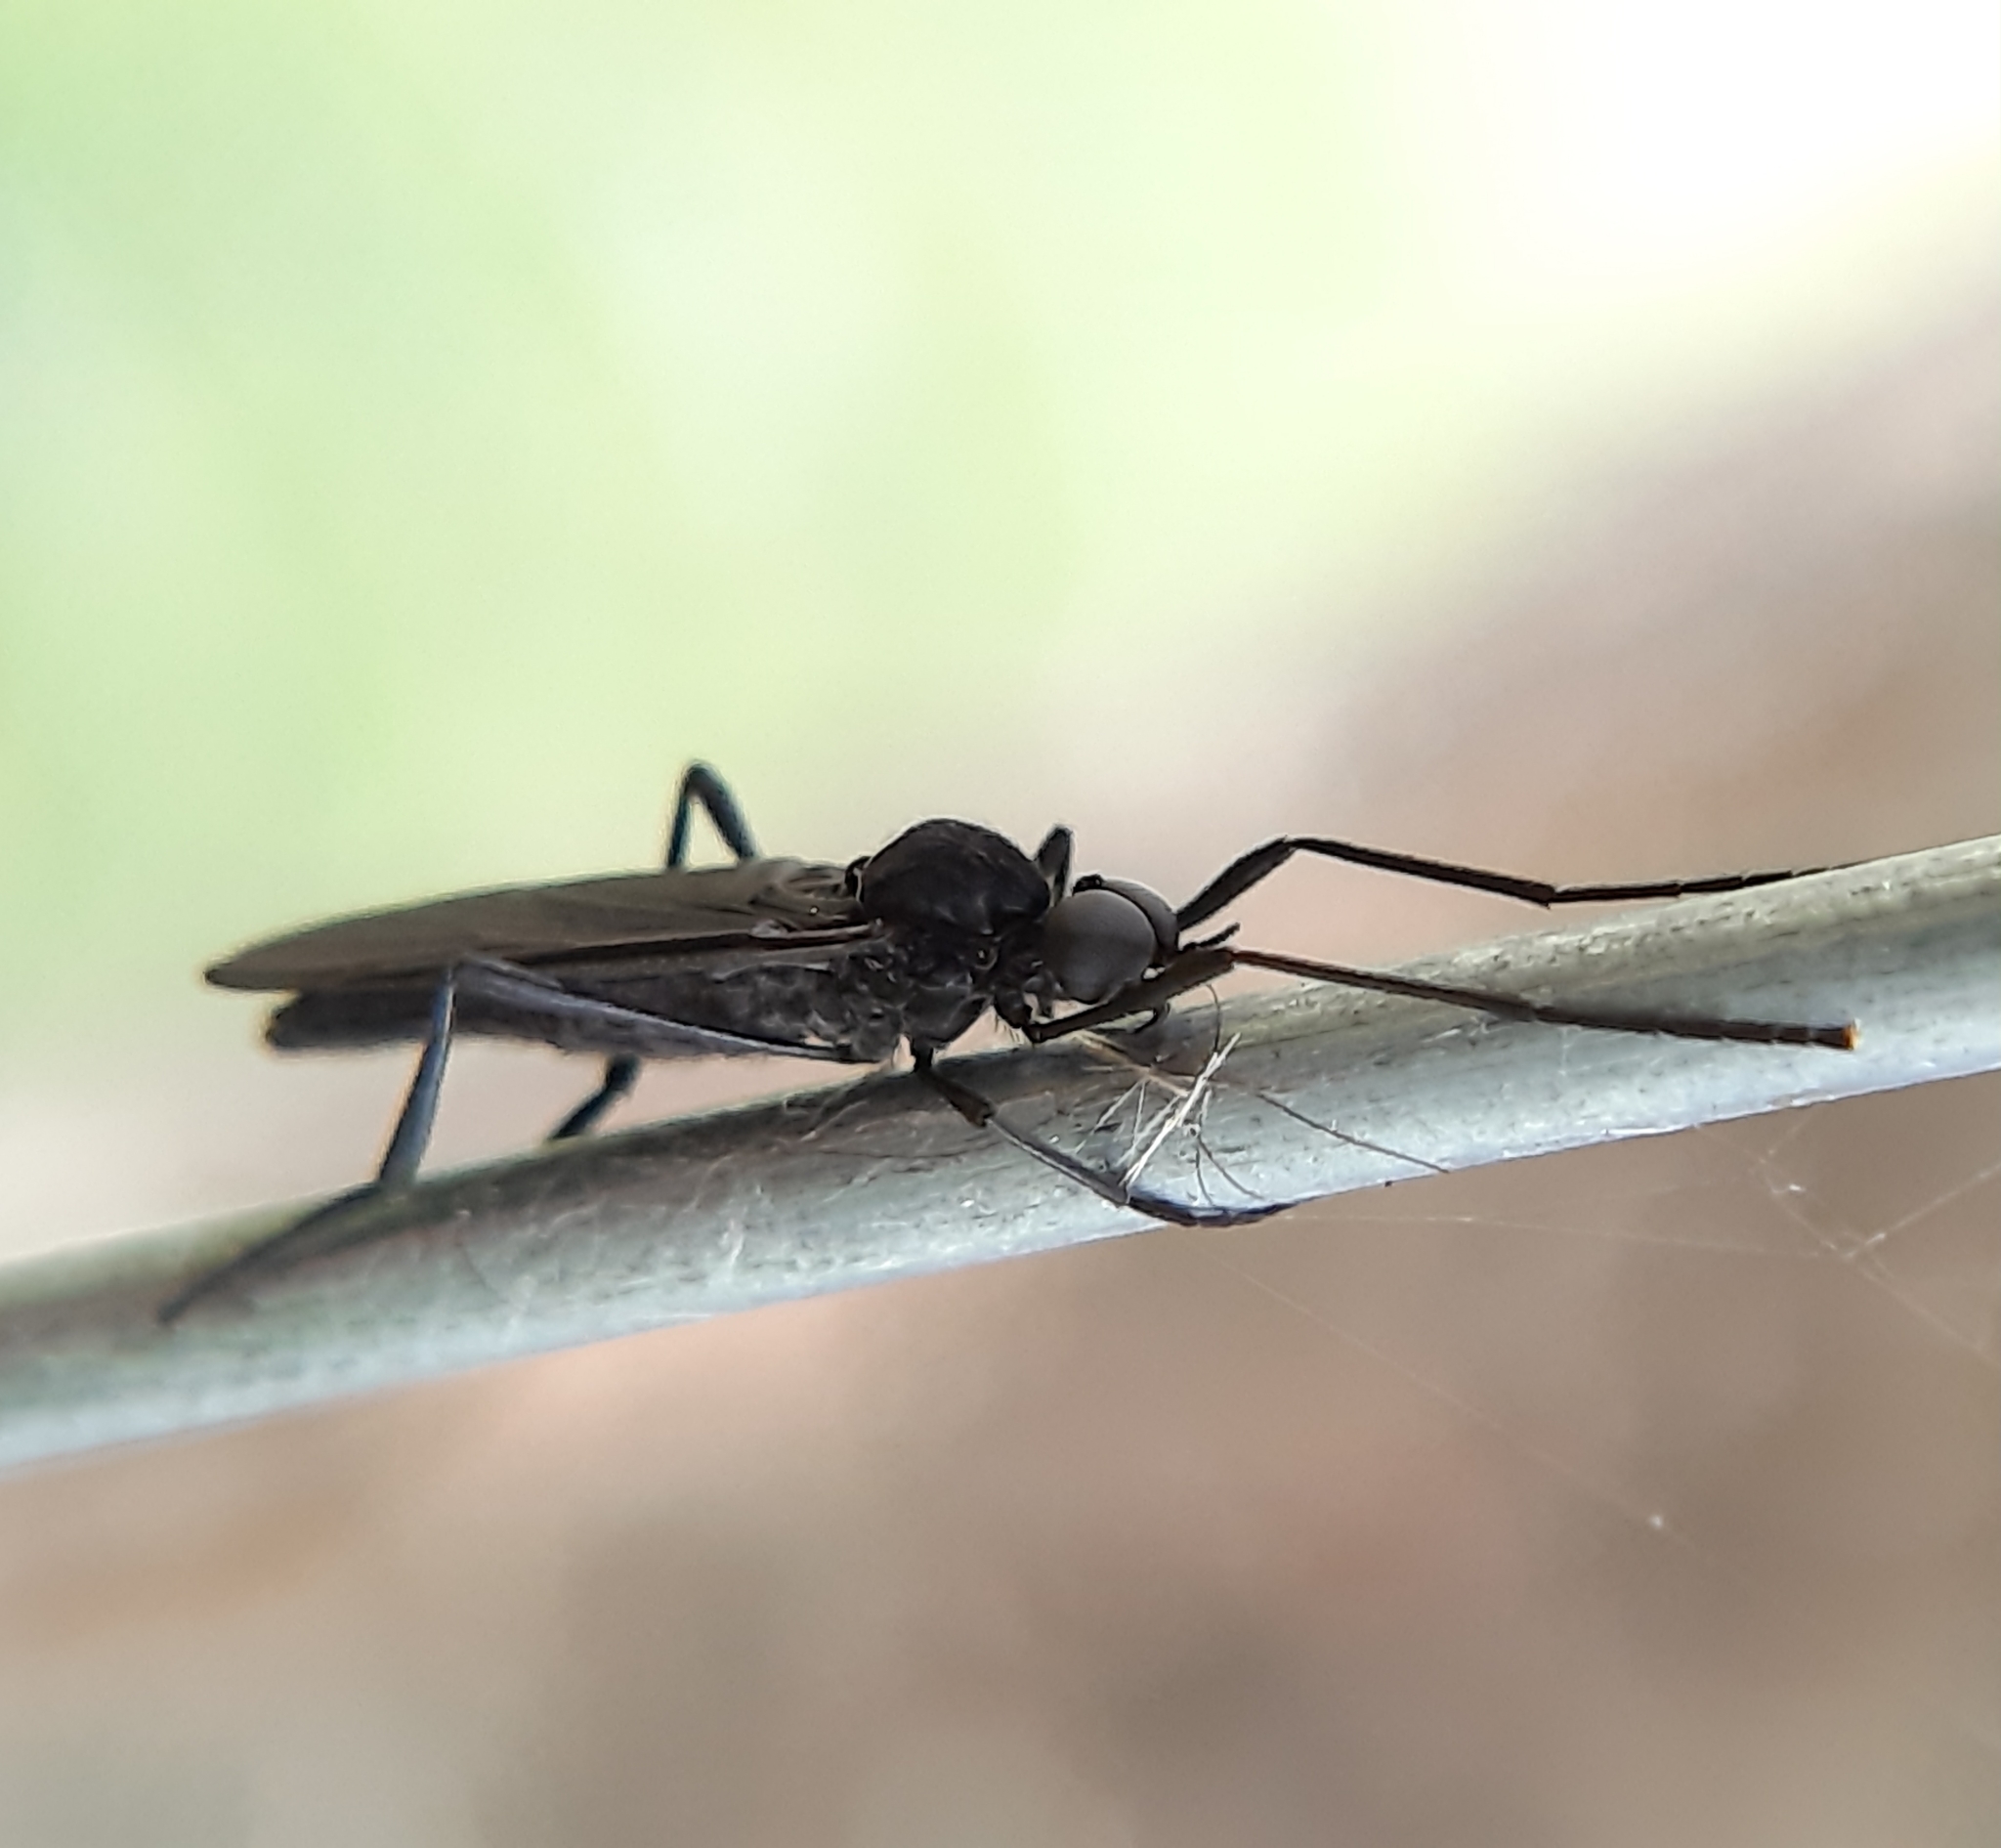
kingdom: Animalia
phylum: Arthropoda
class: Insecta
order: Diptera
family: Bibionidae
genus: Penthetria
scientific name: Penthetria heteroptera
